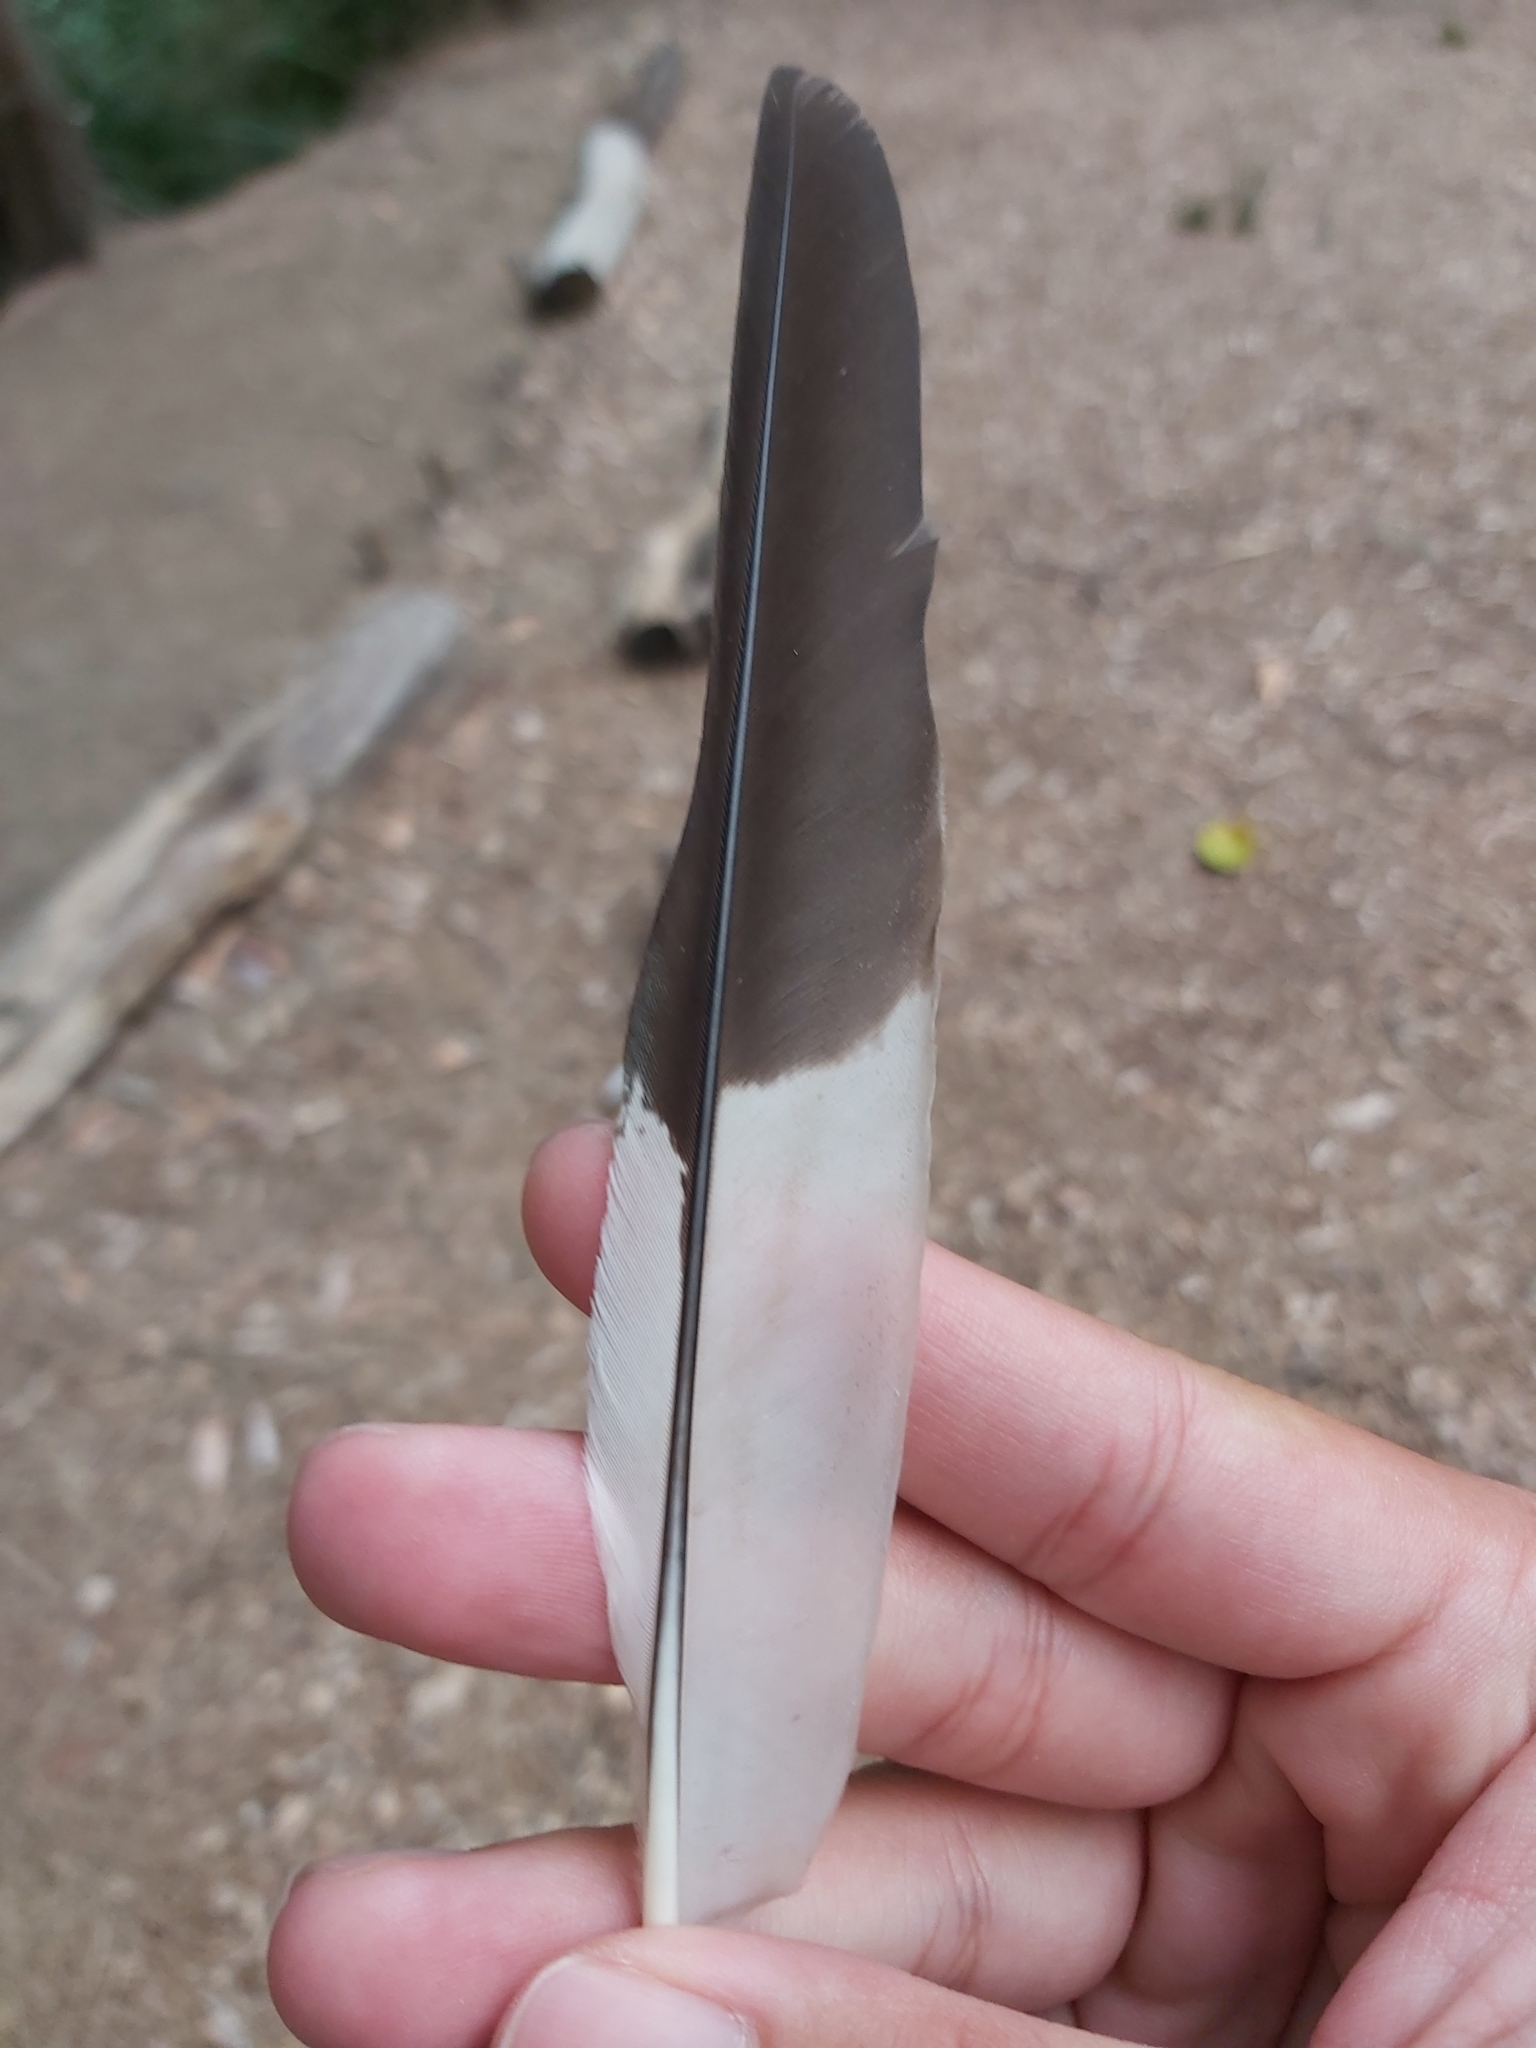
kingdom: Animalia
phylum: Chordata
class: Aves
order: Coraciiformes
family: Alcedinidae
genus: Dacelo
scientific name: Dacelo novaeguineae
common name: Laughing kookaburra
